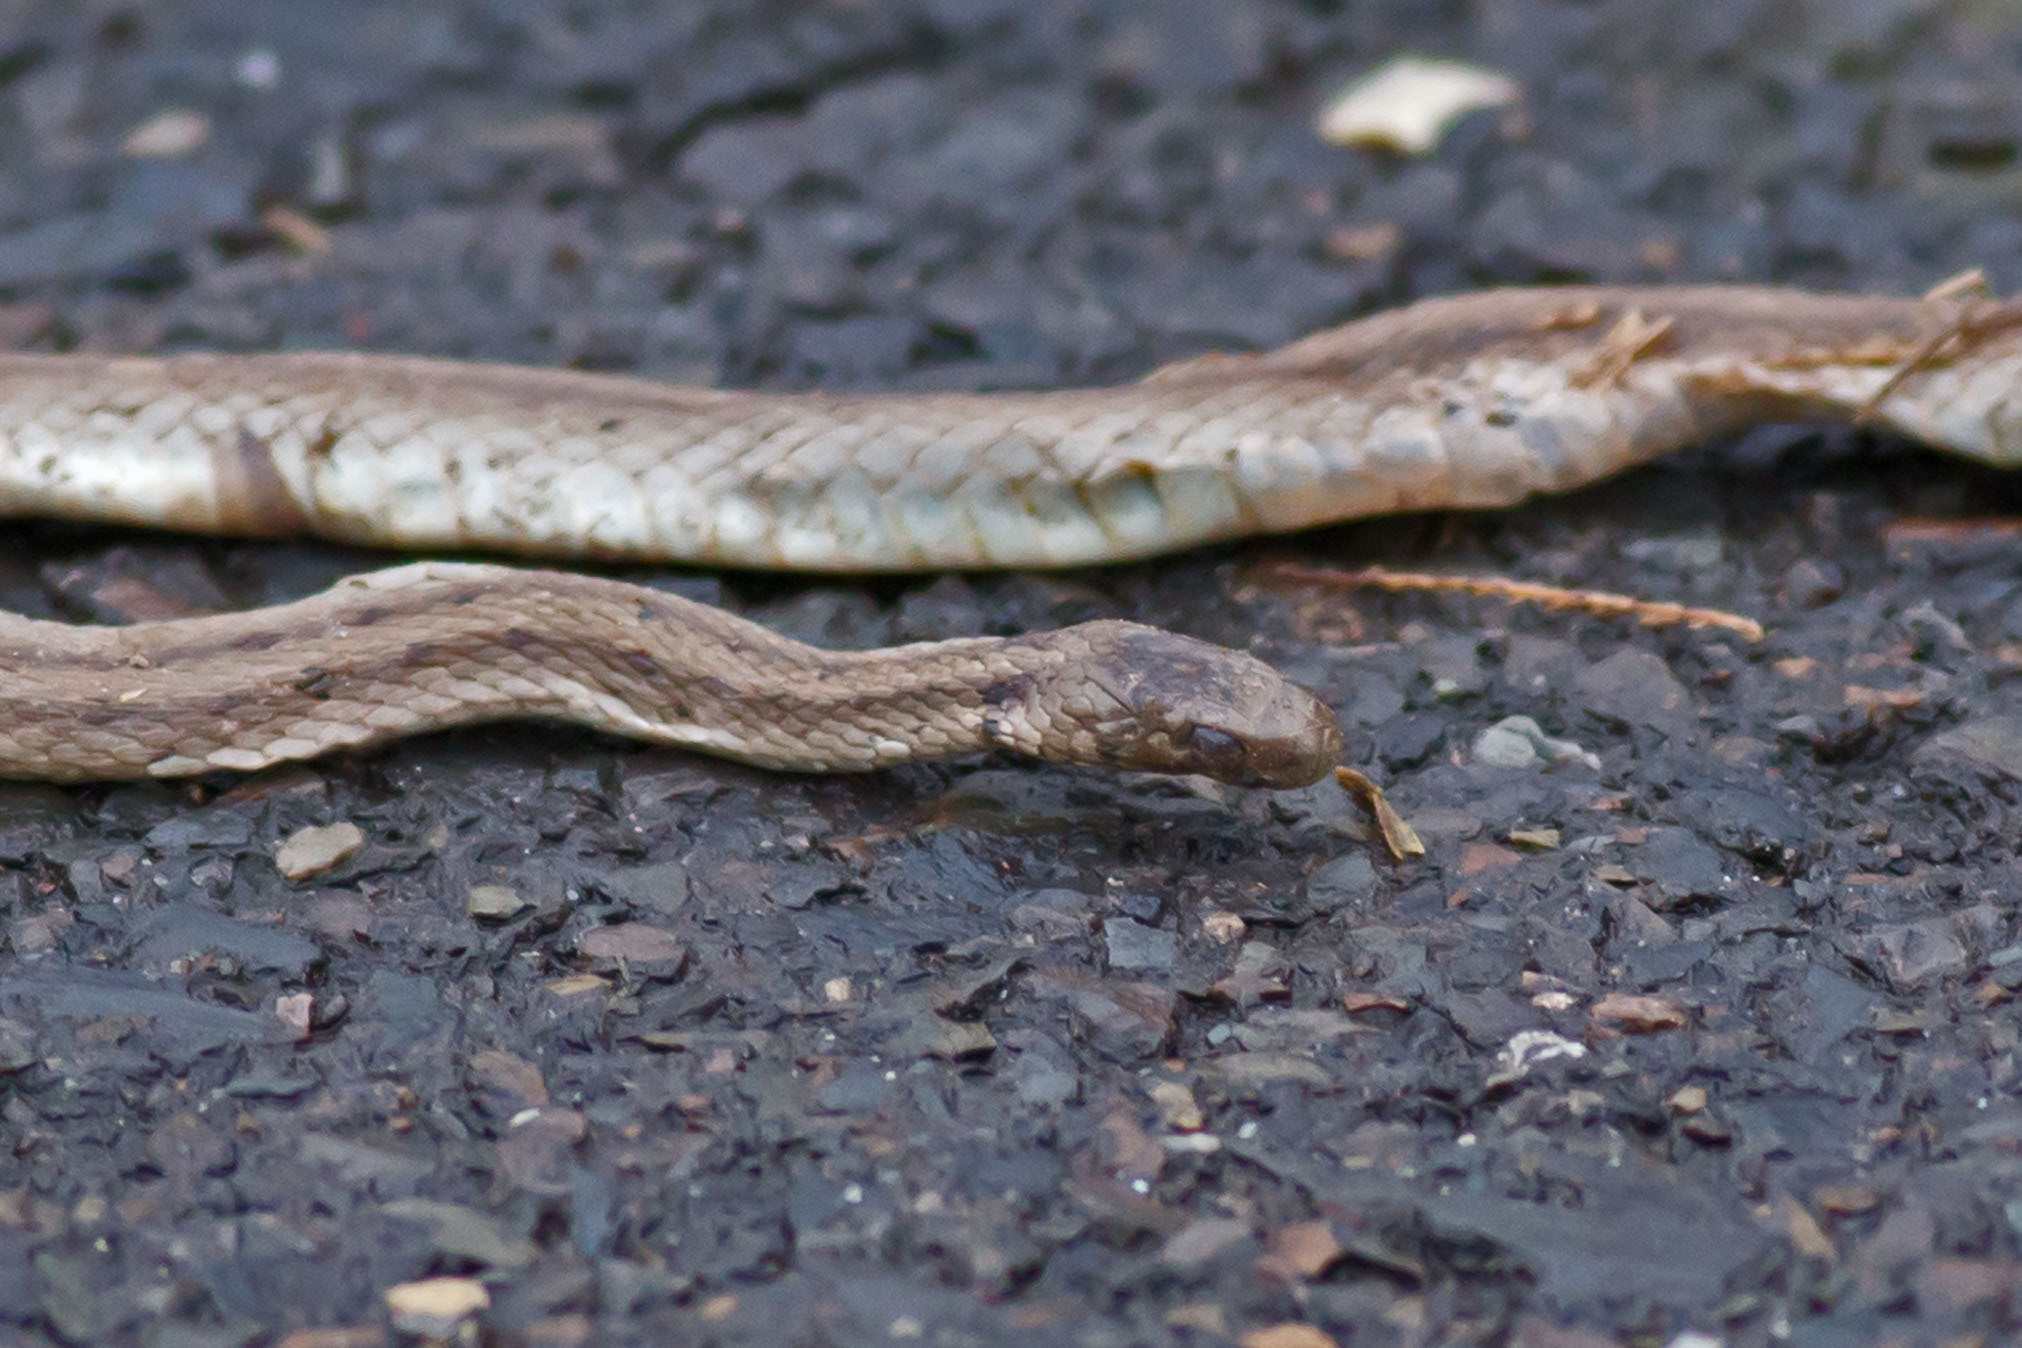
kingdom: Animalia
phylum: Chordata
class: Squamata
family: Colubridae
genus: Storeria
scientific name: Storeria dekayi
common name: (dekay’s) brown snake
